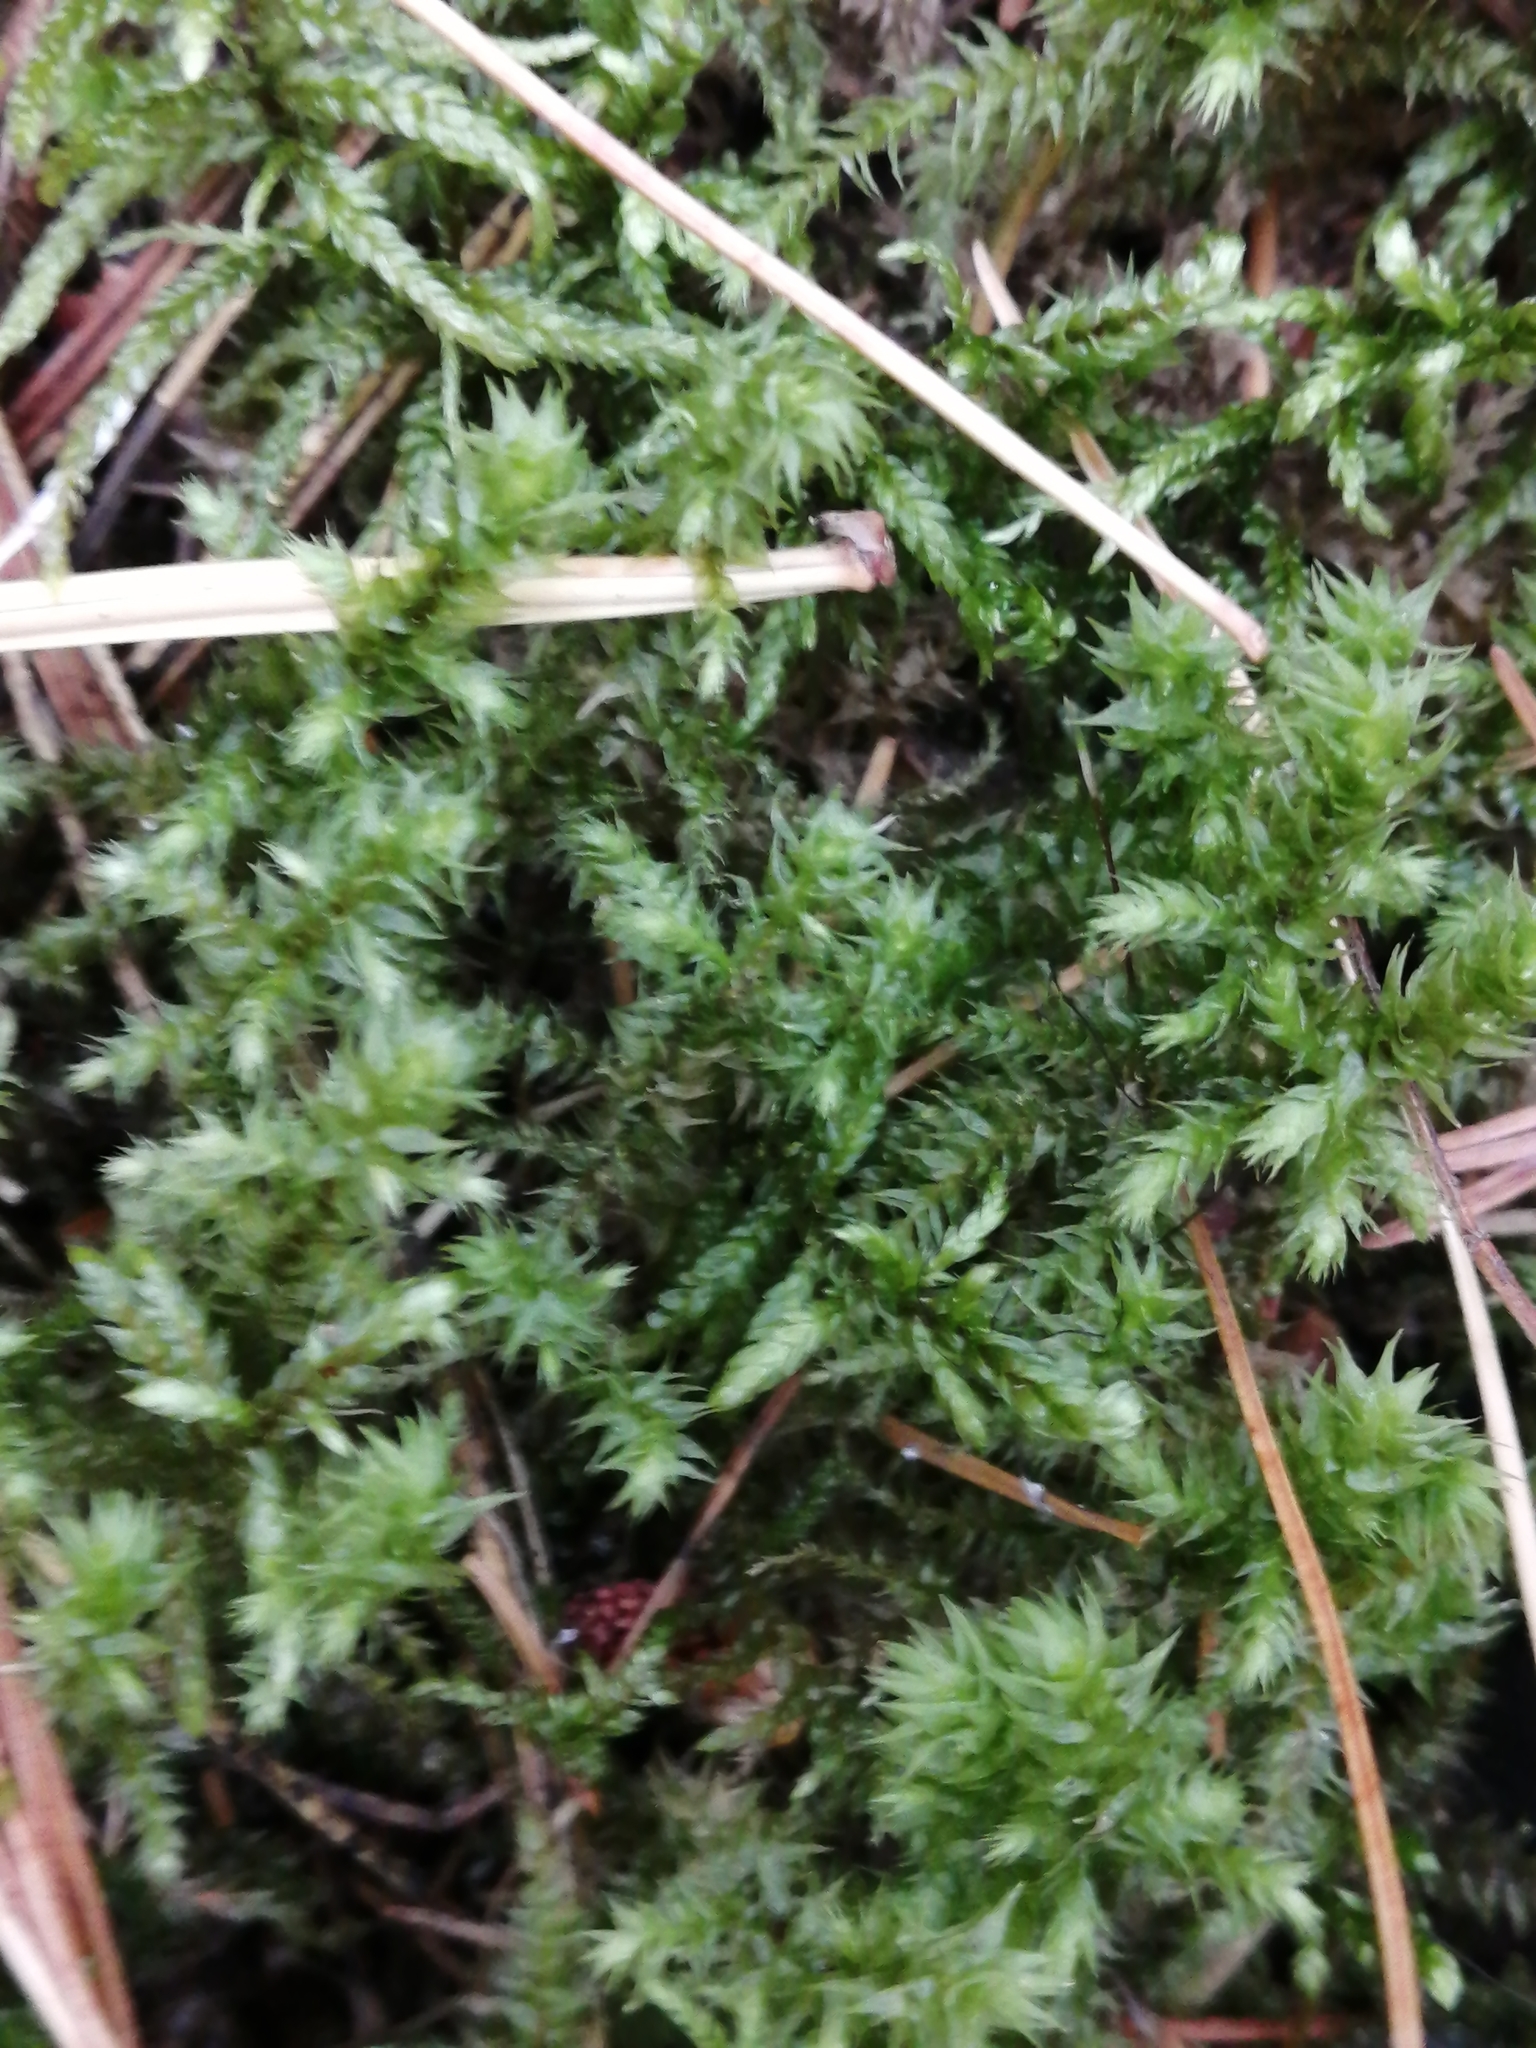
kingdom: Plantae
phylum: Bryophyta
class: Bryopsida
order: Hypnales
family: Hylocomiaceae
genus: Hylocomiadelphus
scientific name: Hylocomiadelphus triquetrus
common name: Rough goose neck moss
